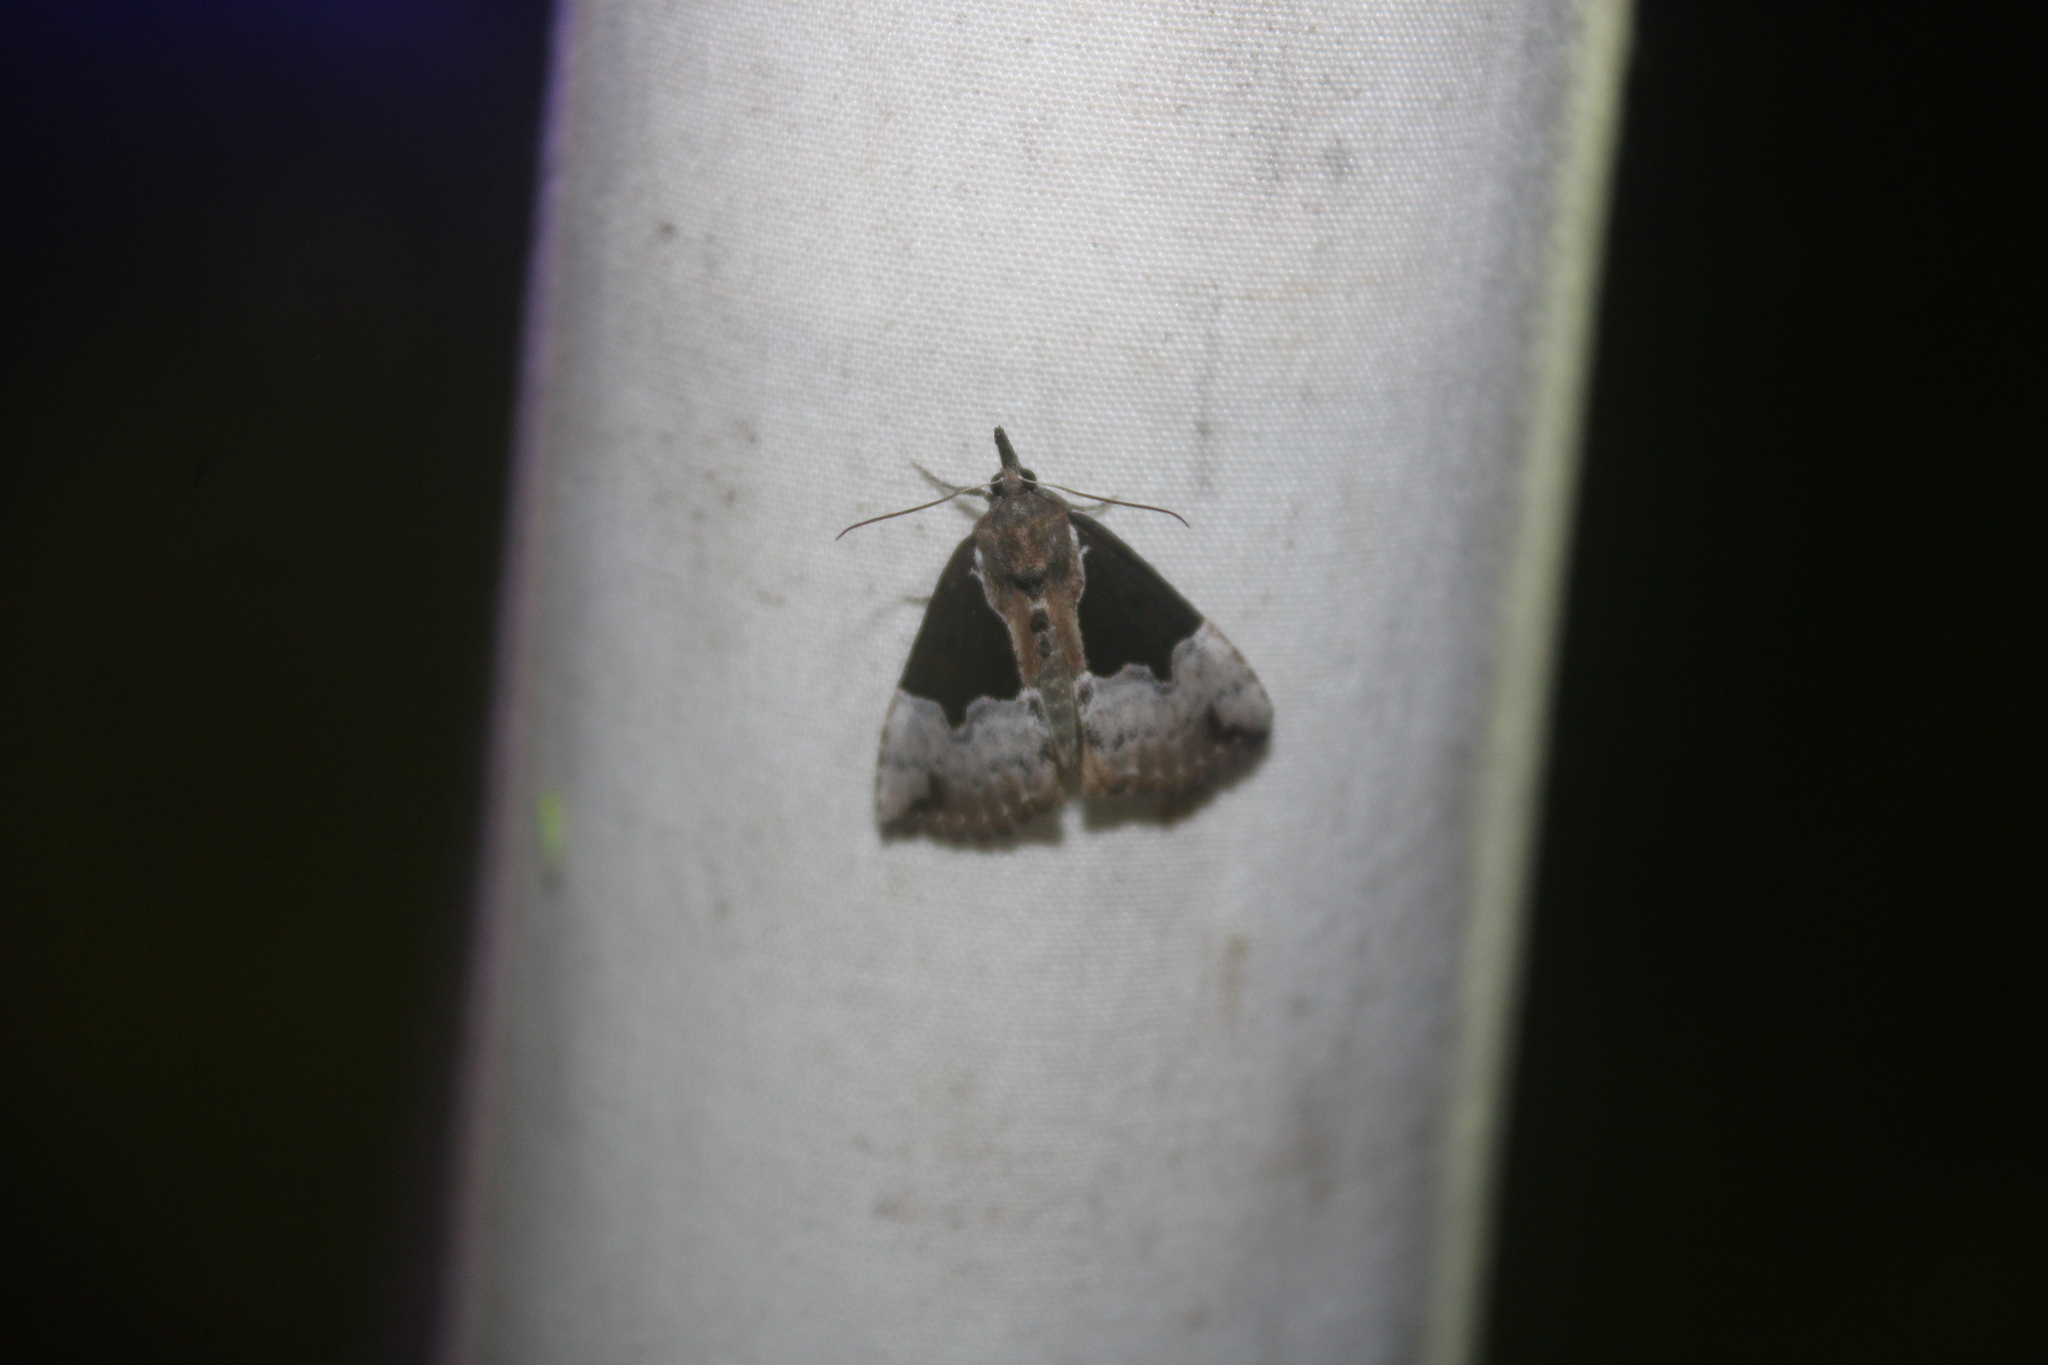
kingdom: Animalia
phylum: Arthropoda
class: Insecta
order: Lepidoptera
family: Erebidae
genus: Hypena
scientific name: Hypena bijugalis
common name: Dimorphic bomolocha moth
